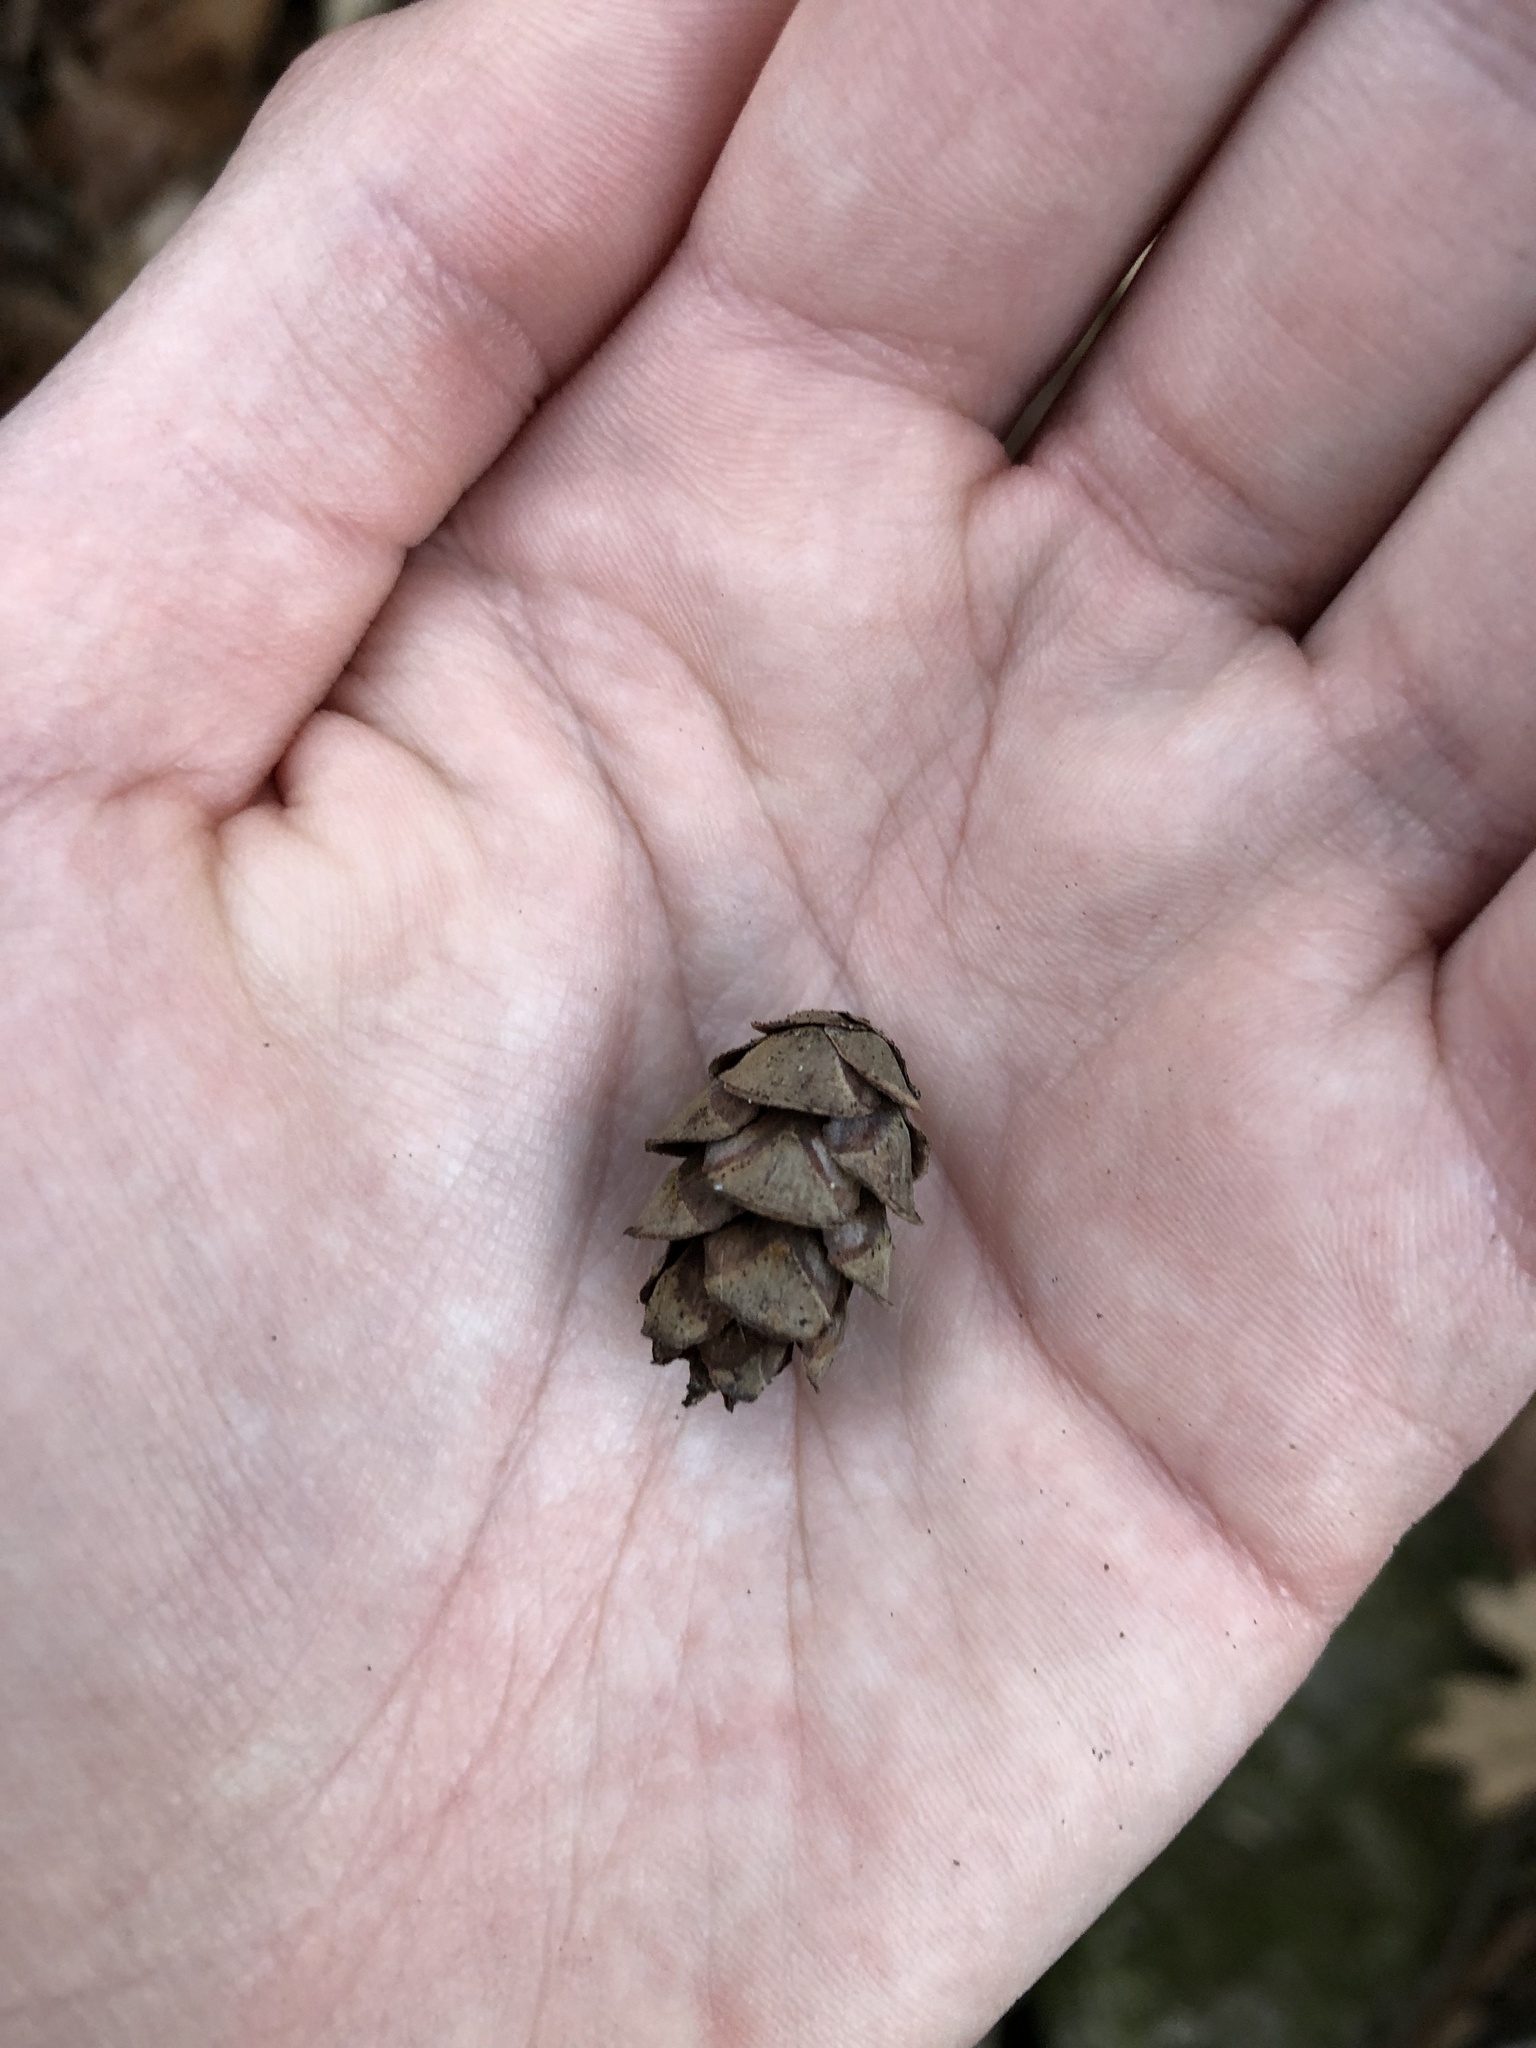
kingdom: Plantae
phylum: Tracheophyta
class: Pinopsida
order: Pinales
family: Pinaceae
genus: Tsuga
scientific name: Tsuga canadensis
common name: Eastern hemlock
